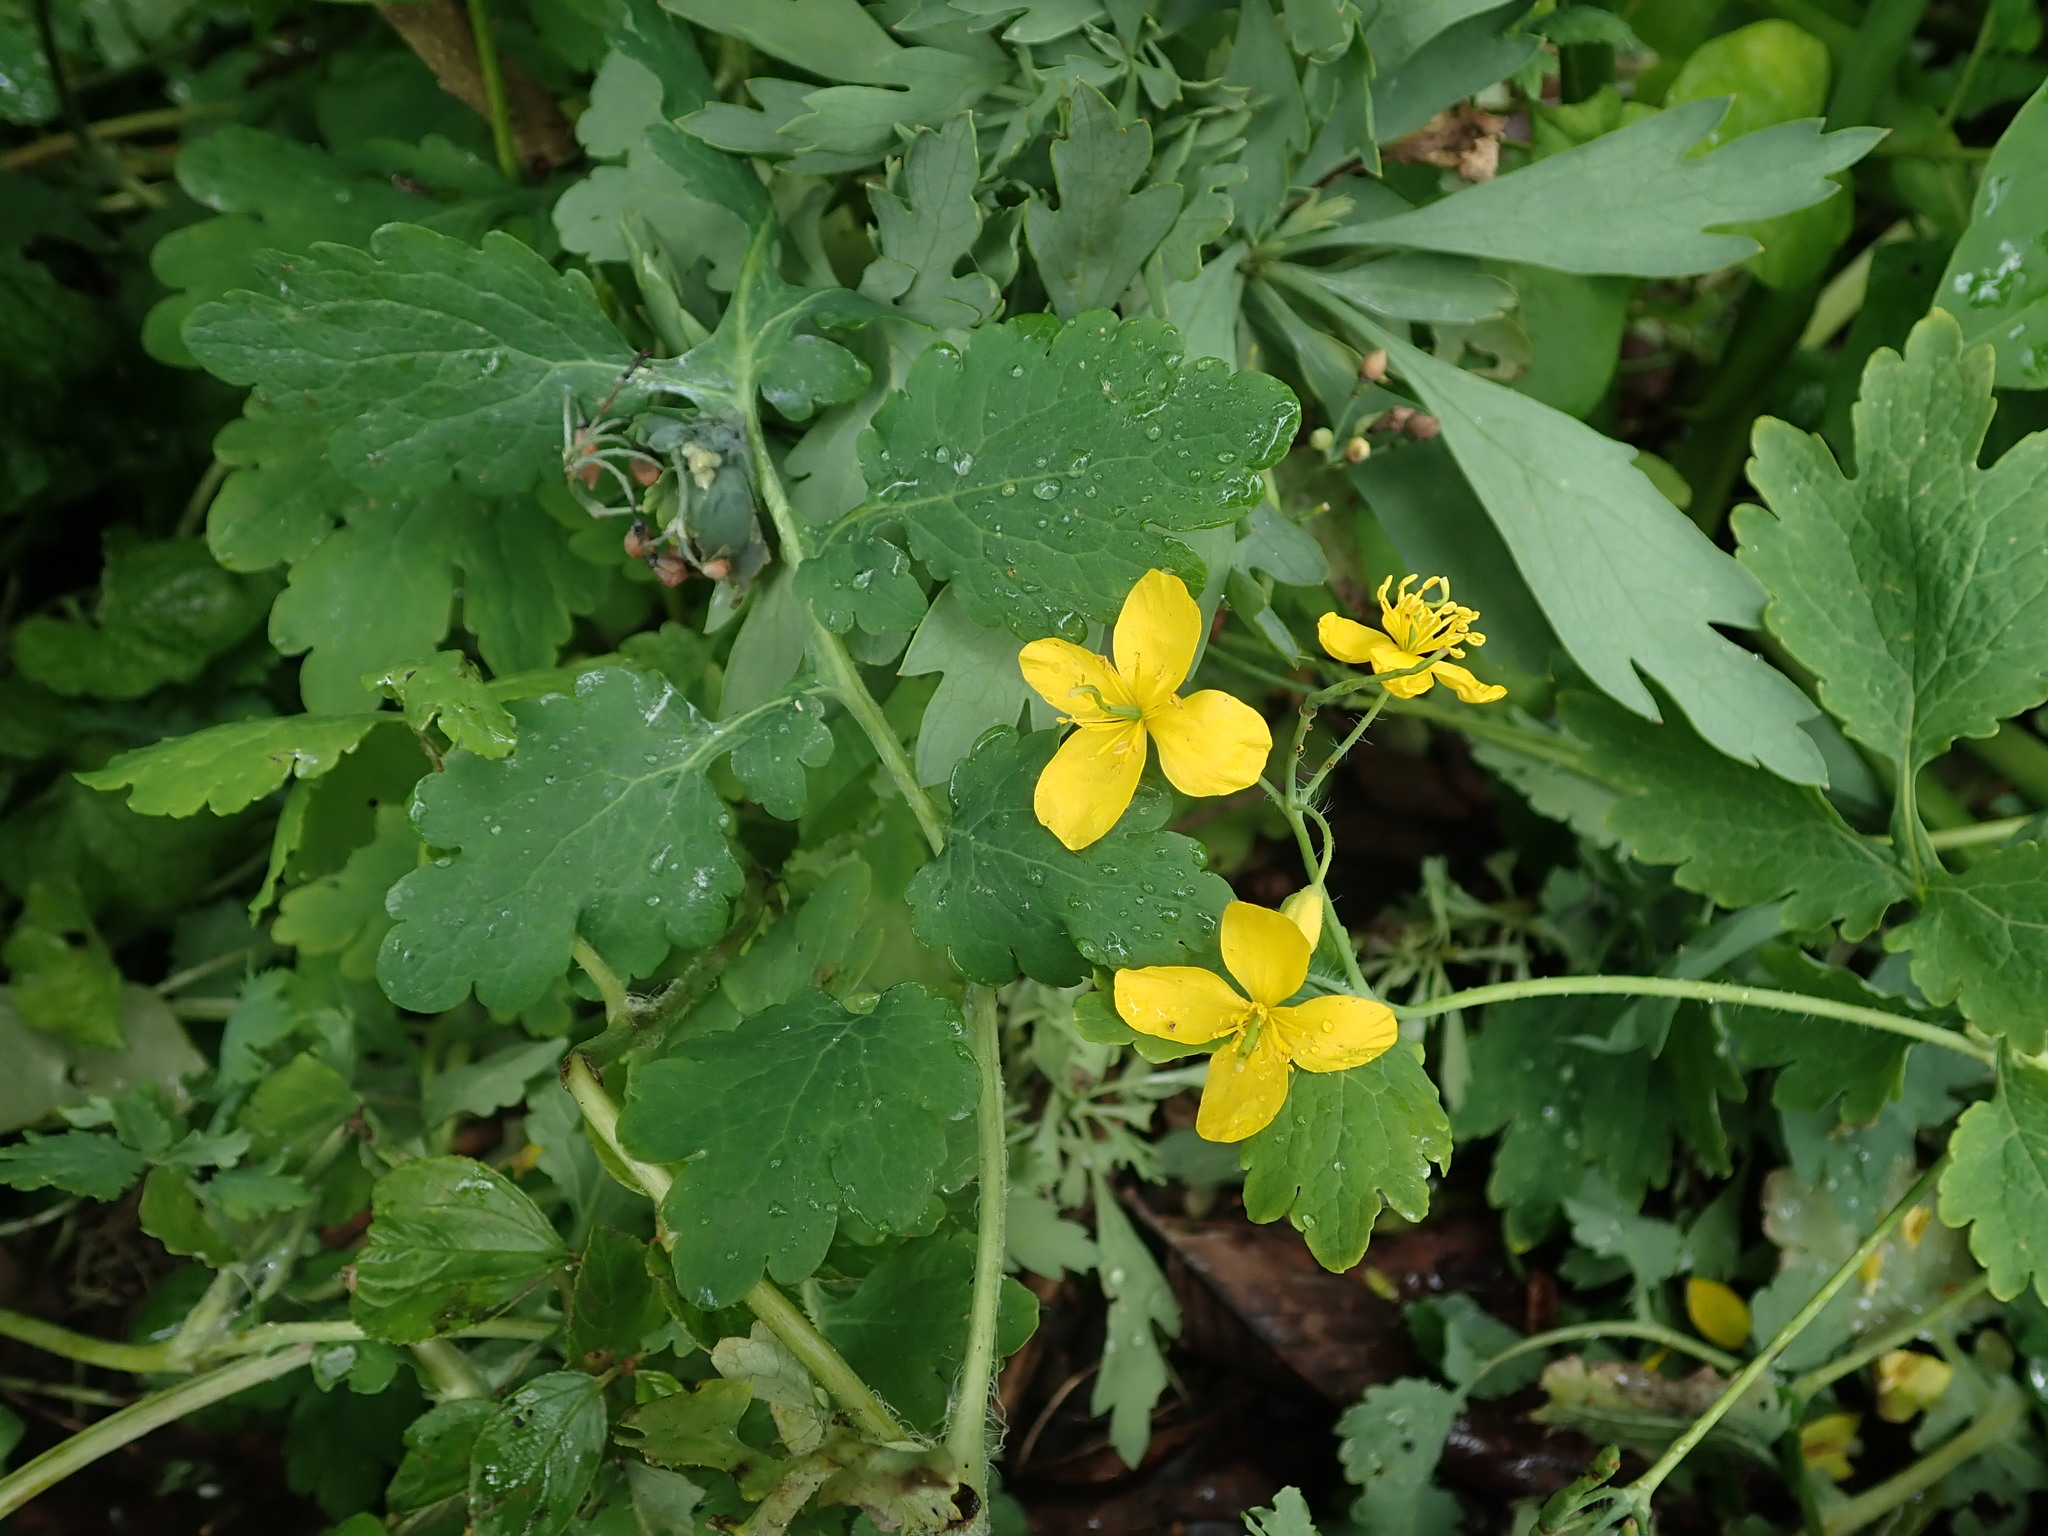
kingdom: Plantae
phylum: Tracheophyta
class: Magnoliopsida
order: Ranunculales
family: Papaveraceae
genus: Chelidonium
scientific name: Chelidonium majus
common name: Greater celandine
